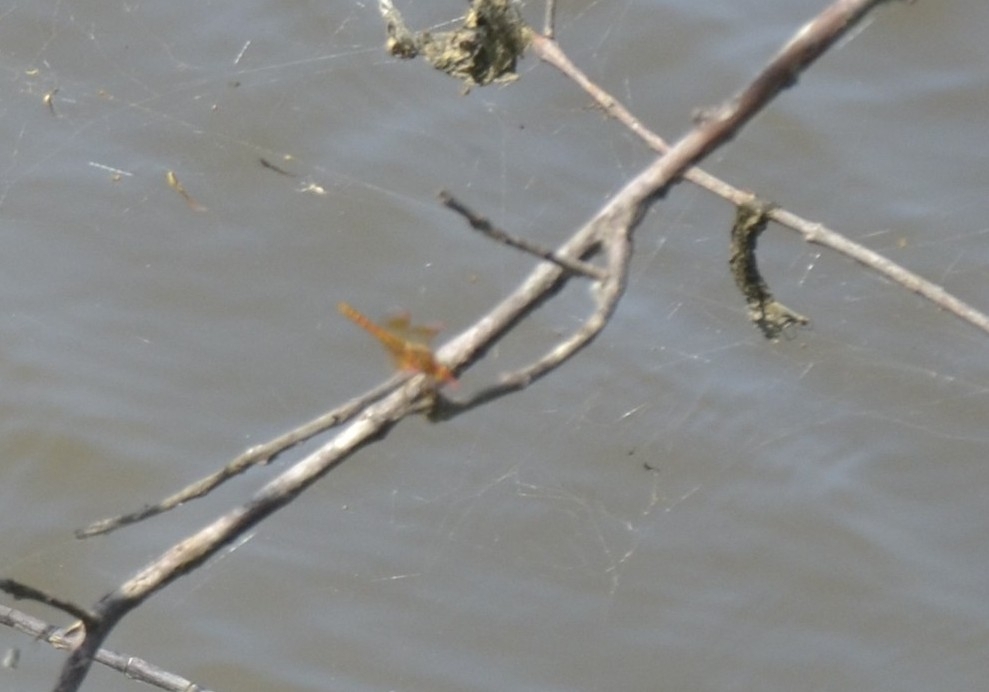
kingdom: Animalia
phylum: Arthropoda
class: Insecta
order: Odonata
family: Libellulidae
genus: Brachythemis
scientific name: Brachythemis contaminata
